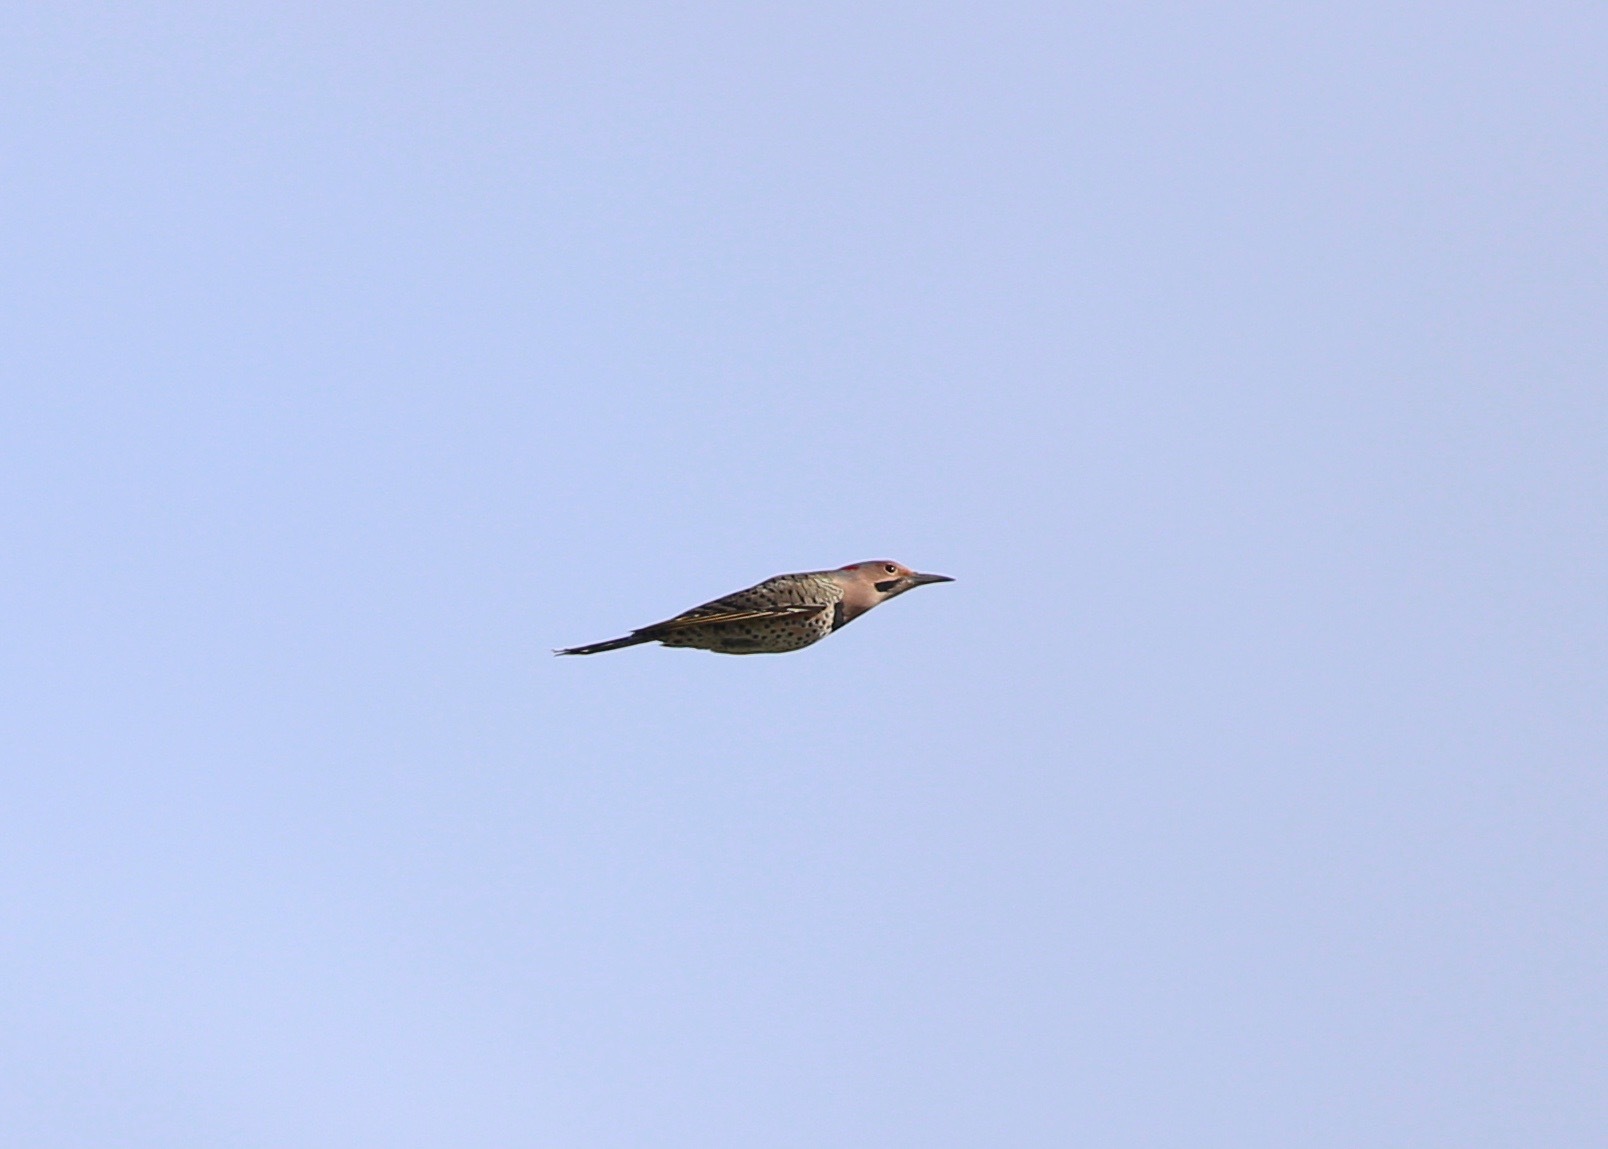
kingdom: Animalia
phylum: Chordata
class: Aves
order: Piciformes
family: Picidae
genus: Colaptes
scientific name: Colaptes auratus
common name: Northern flicker
